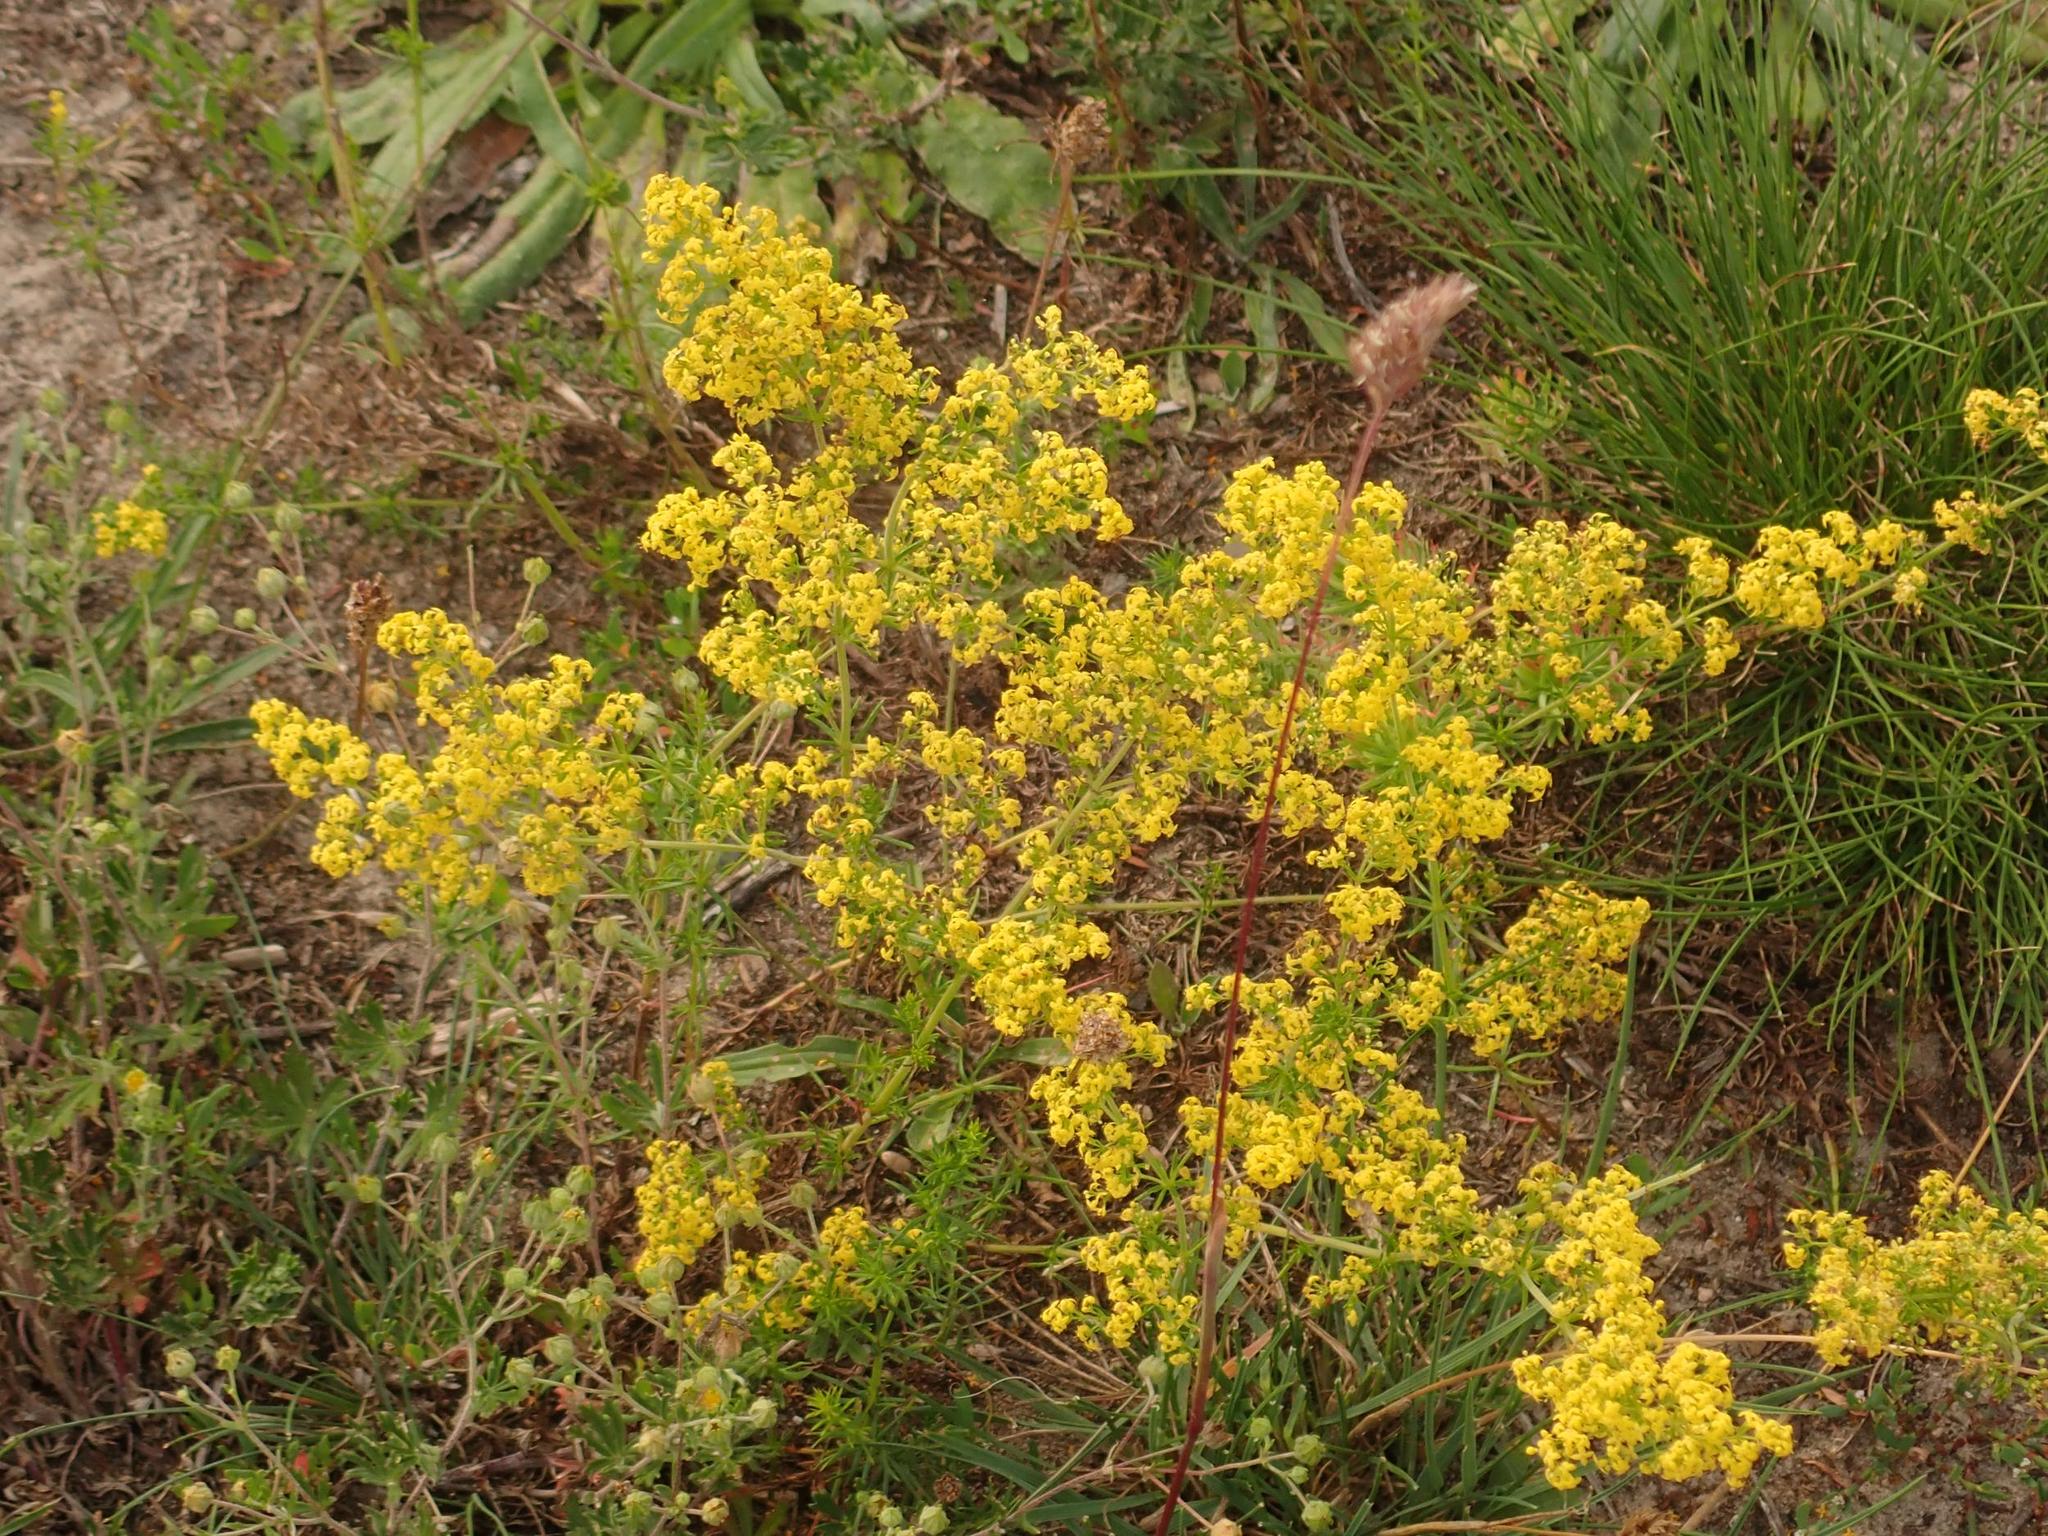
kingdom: Plantae
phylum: Tracheophyta
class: Magnoliopsida
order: Gentianales
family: Rubiaceae
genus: Galium
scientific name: Galium verum
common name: Lady's bedstraw
